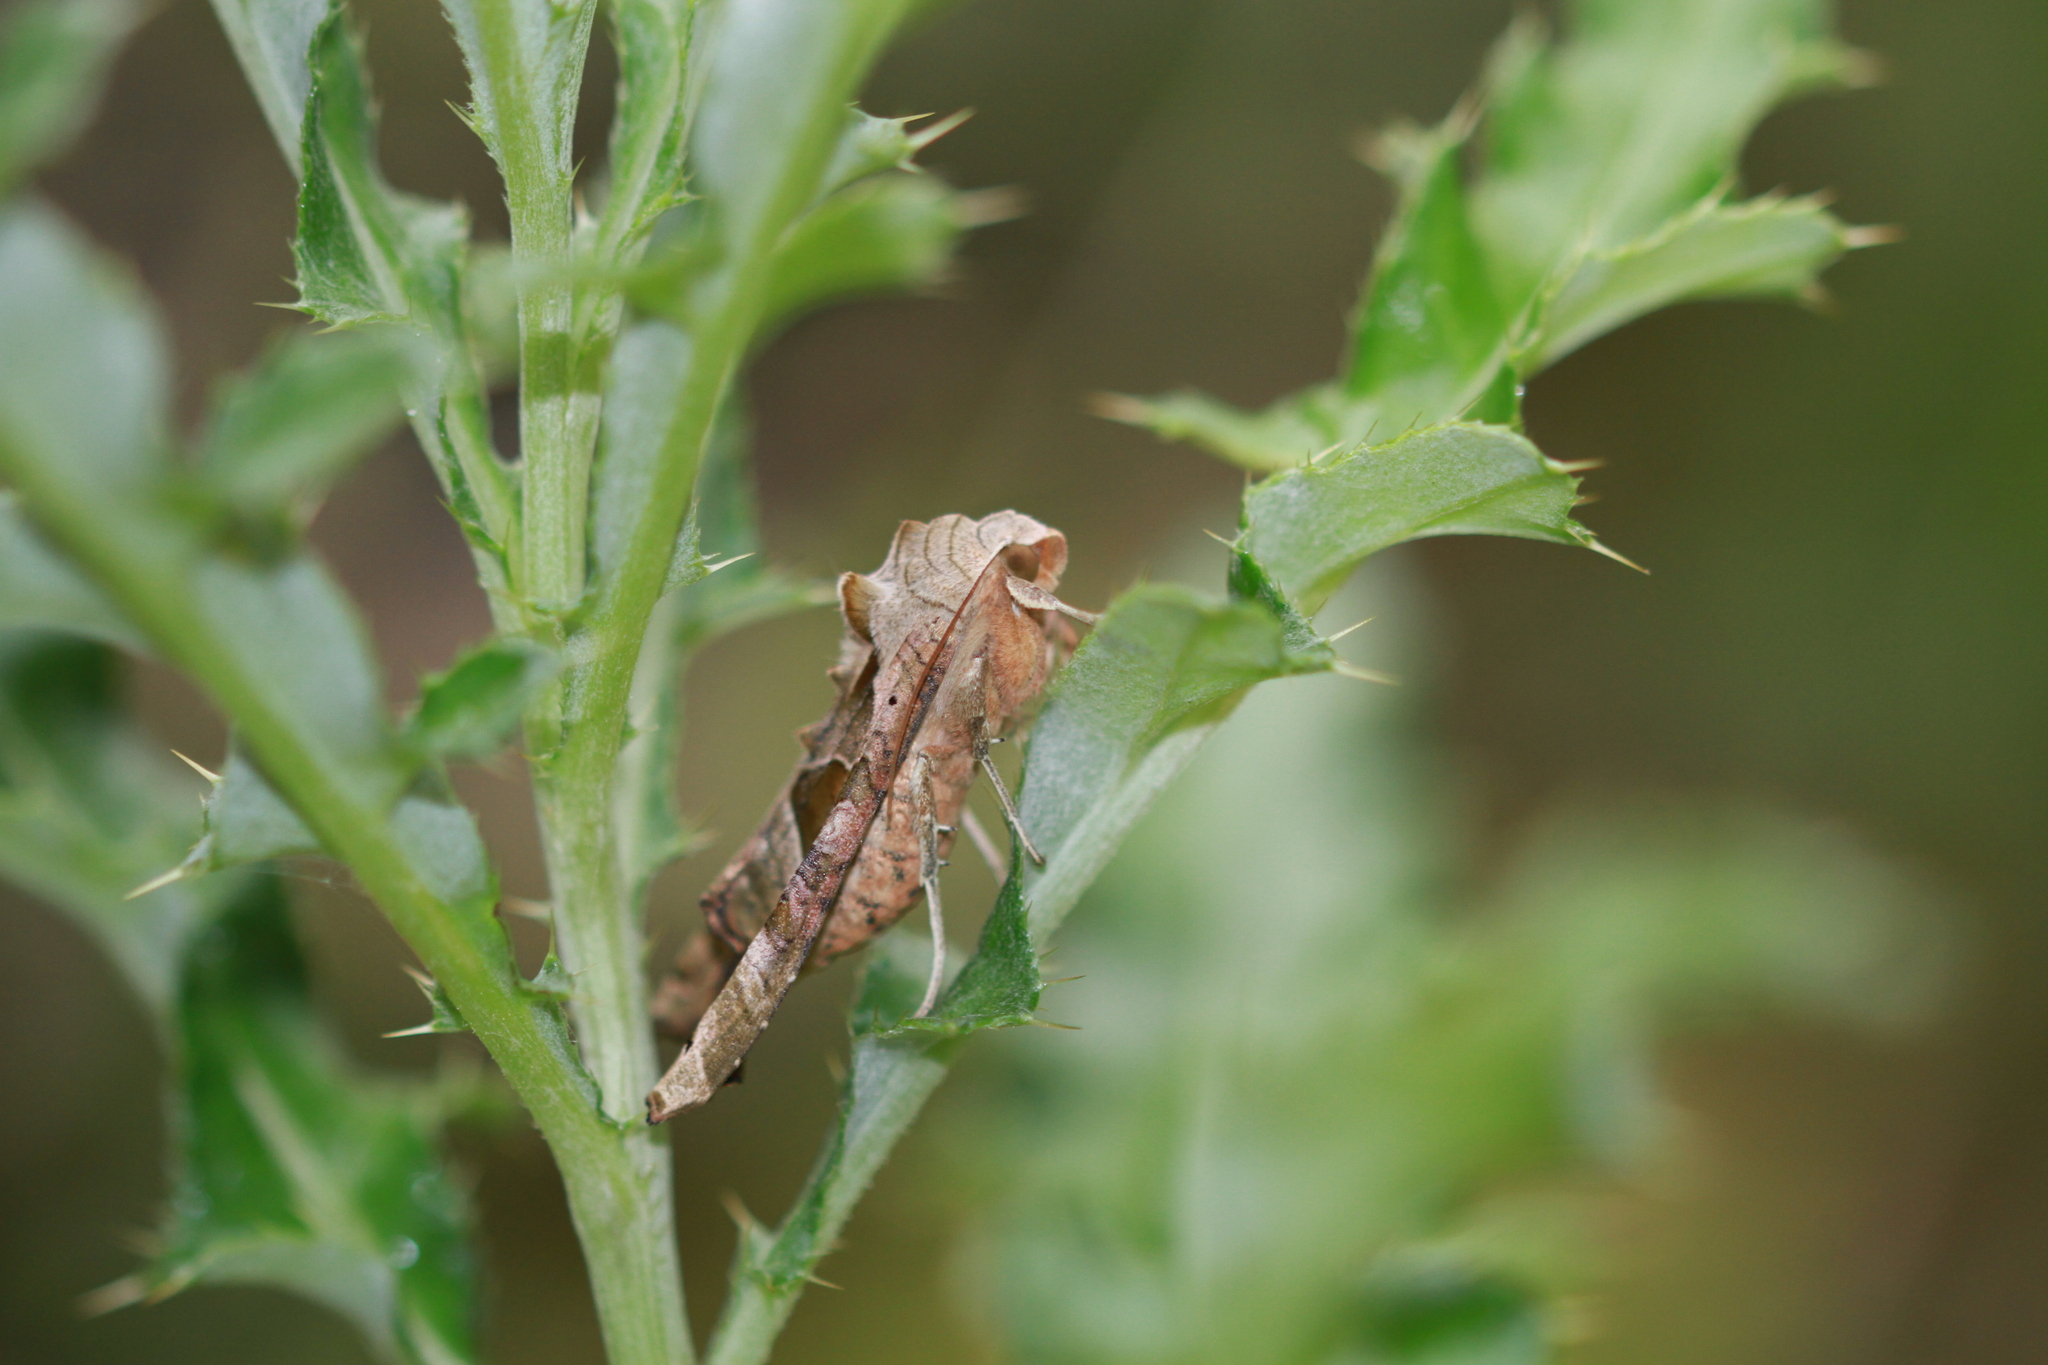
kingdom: Animalia
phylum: Arthropoda
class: Insecta
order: Lepidoptera
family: Noctuidae
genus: Phlogophora
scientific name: Phlogophora meticulosa
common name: Angle shades
